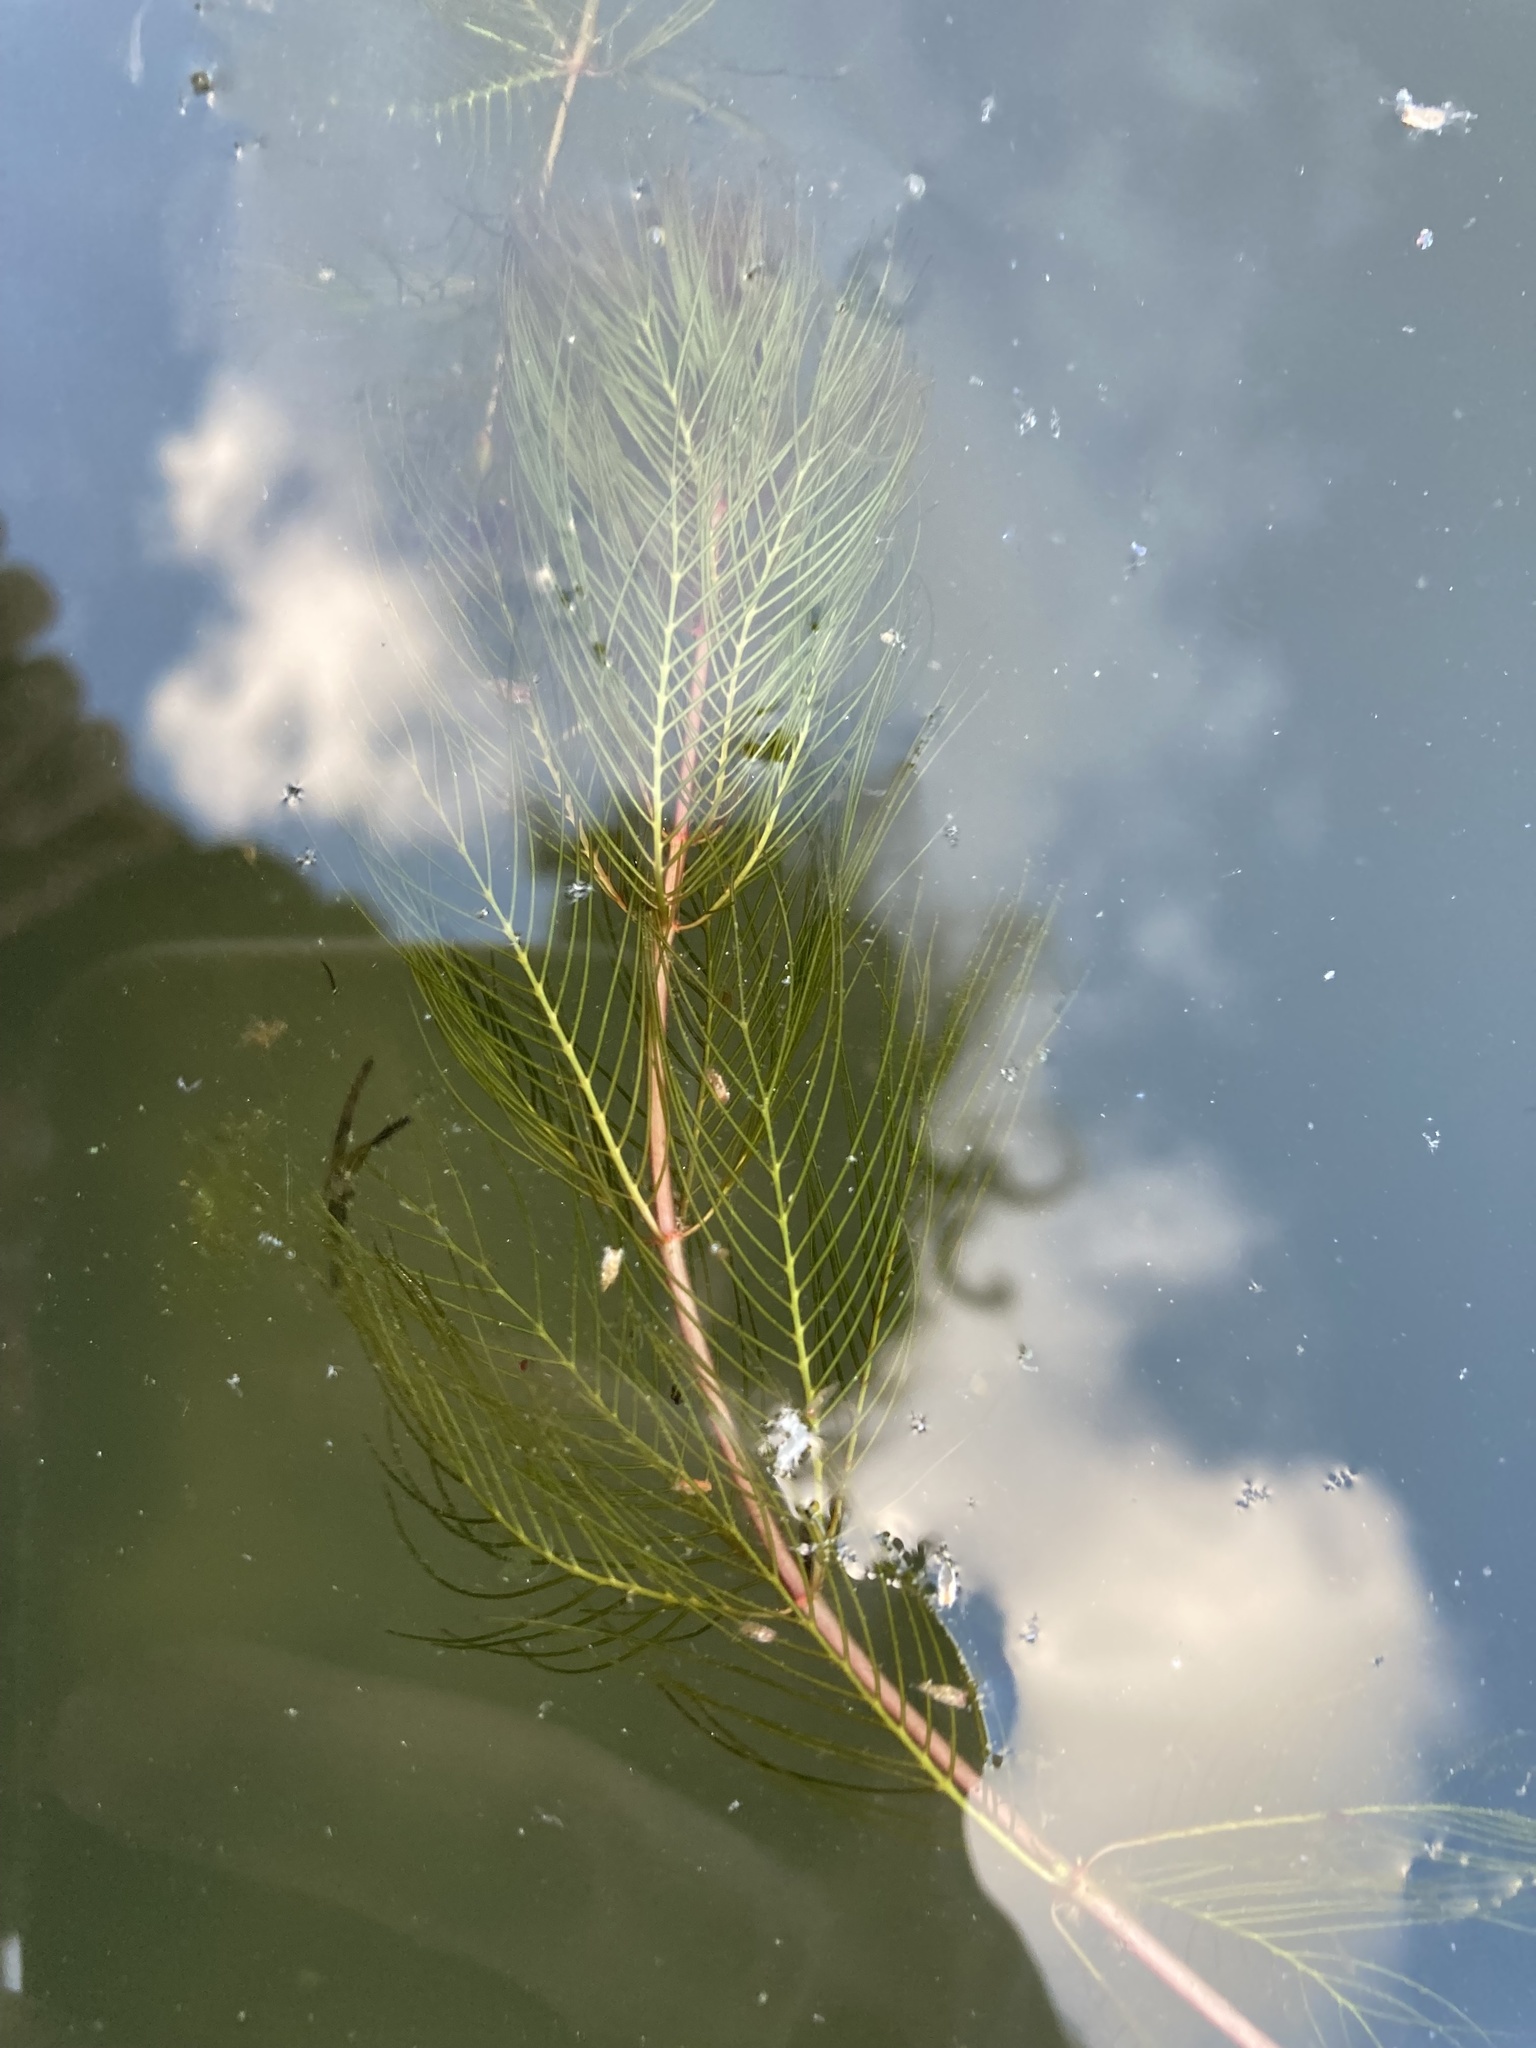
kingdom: Plantae
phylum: Tracheophyta
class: Magnoliopsida
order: Saxifragales
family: Haloragaceae
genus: Myriophyllum
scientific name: Myriophyllum spicatum
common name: Spiked water-milfoil
